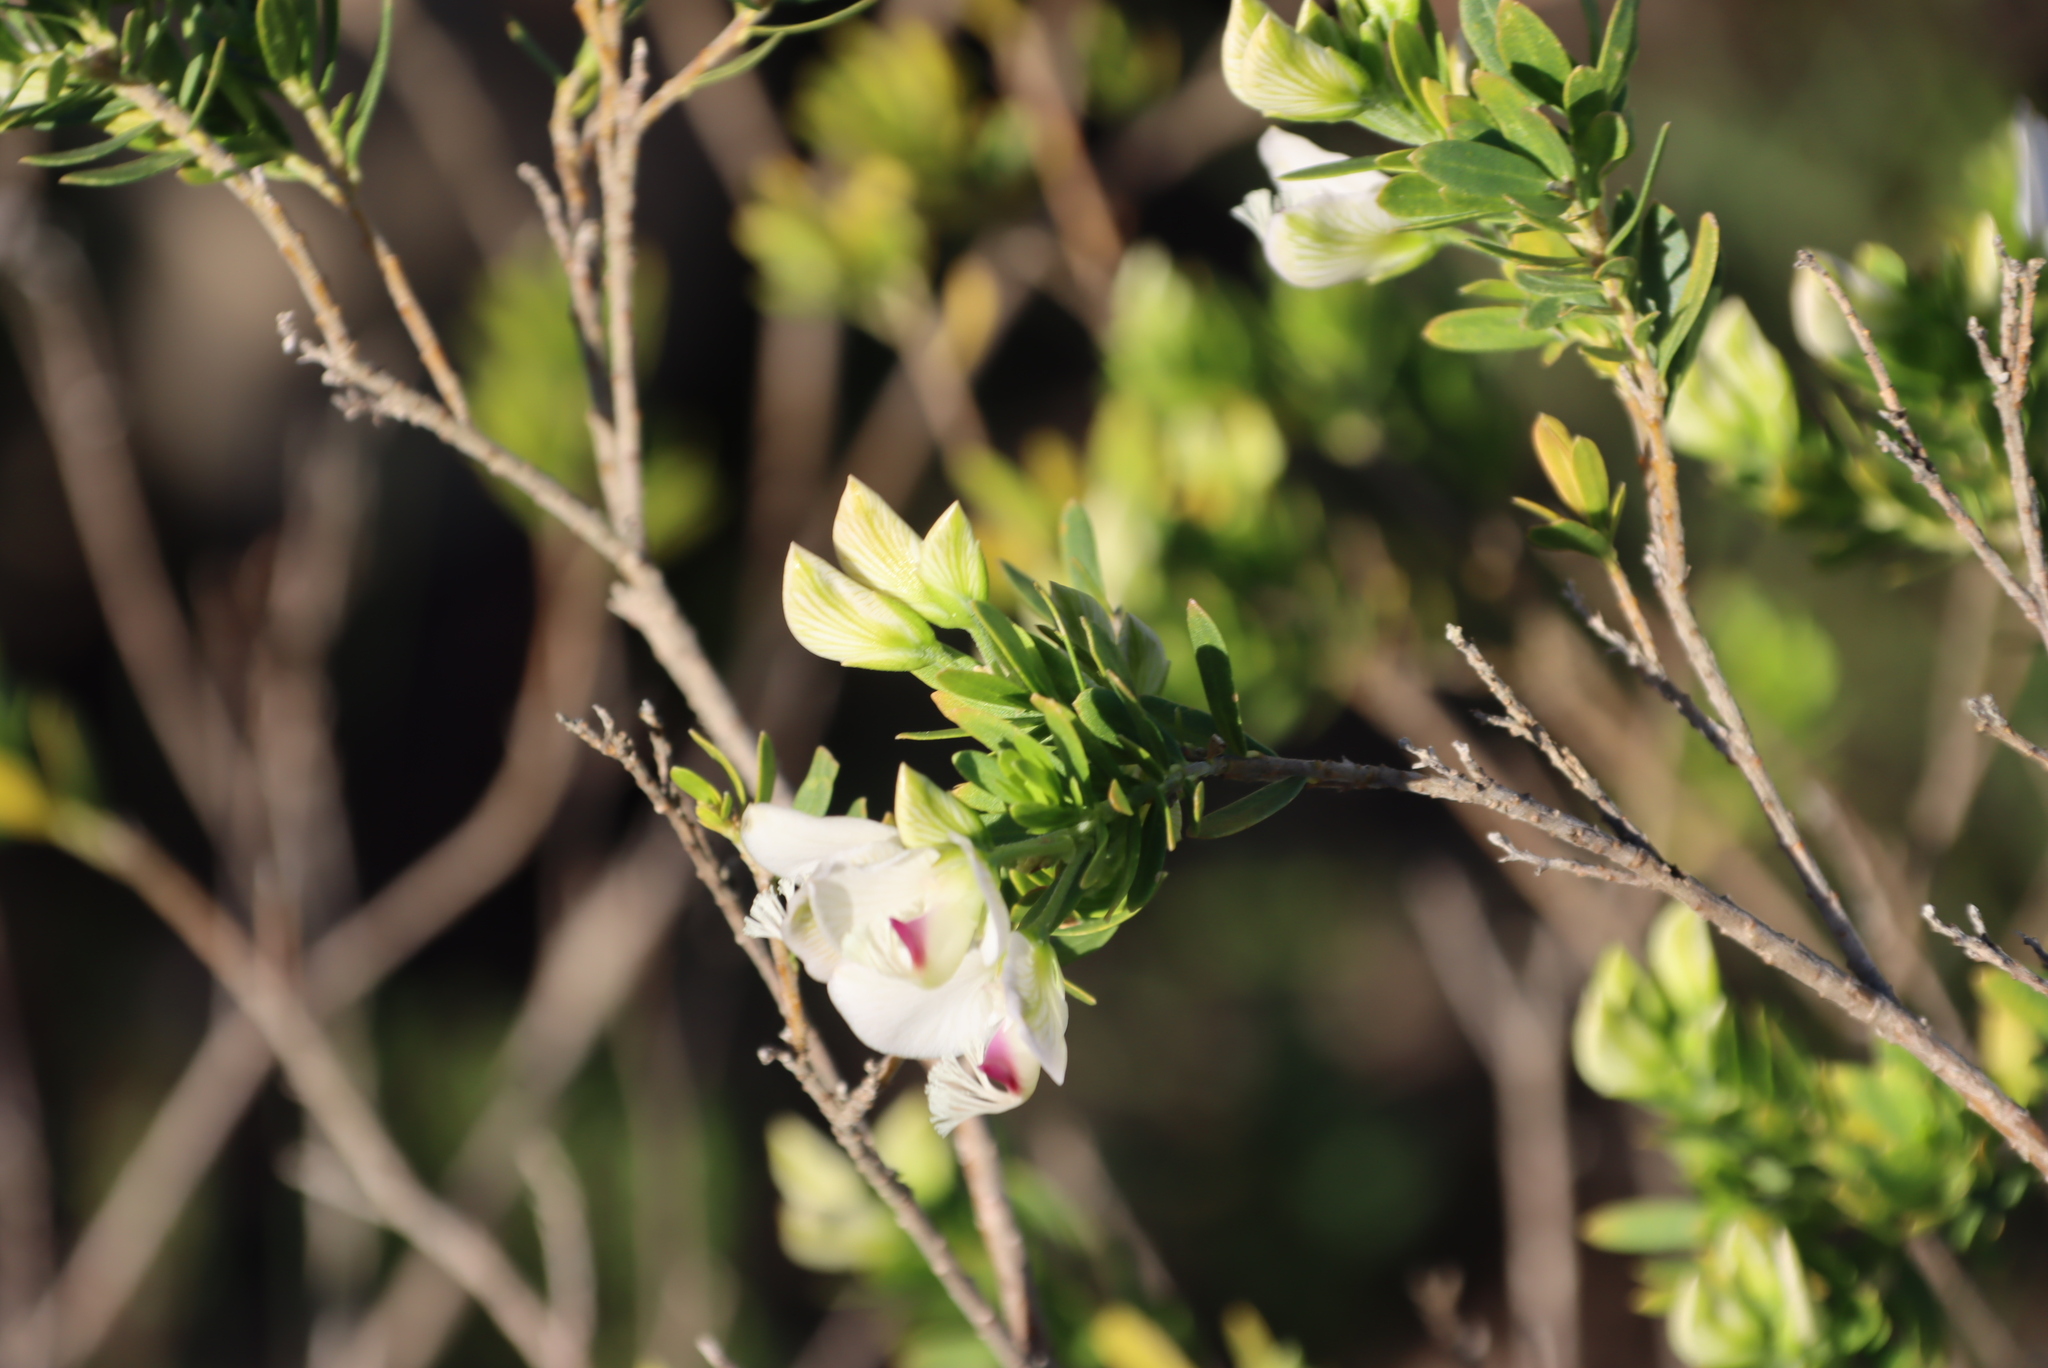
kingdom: Plantae
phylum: Tracheophyta
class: Magnoliopsida
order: Fabales
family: Polygalaceae
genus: Polygala
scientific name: Polygala myrtifolia
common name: Myrtle-leaf milkwort
